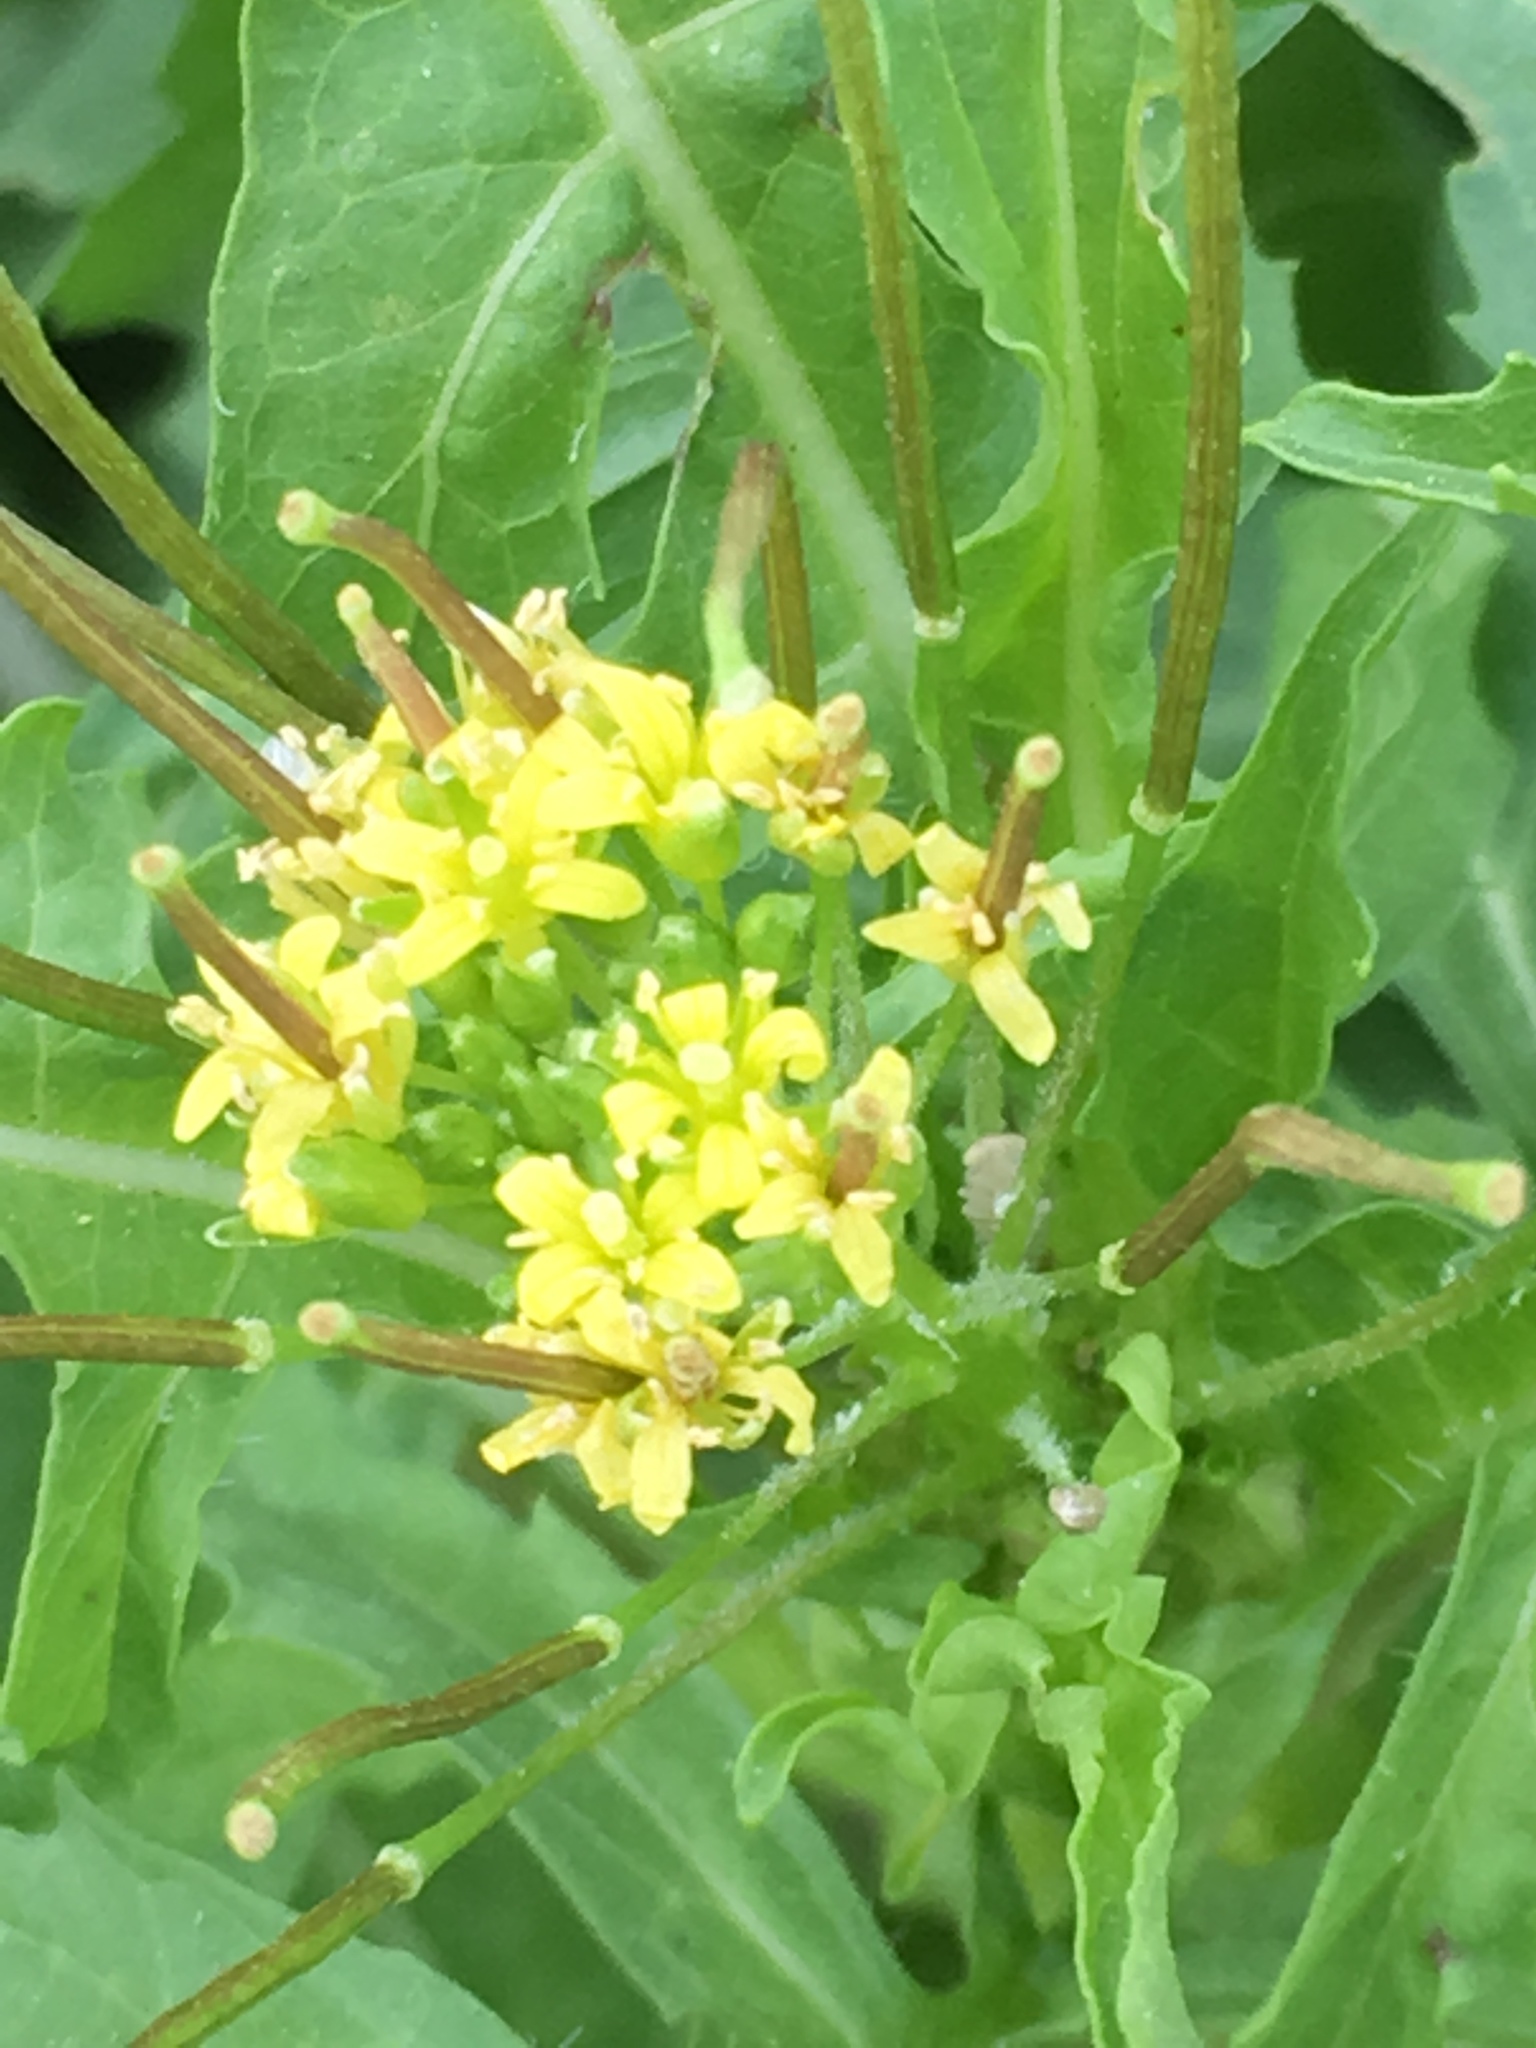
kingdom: Plantae
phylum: Tracheophyta
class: Magnoliopsida
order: Brassicales
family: Brassicaceae
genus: Sisymbrium
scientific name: Sisymbrium irio
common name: London rocket
